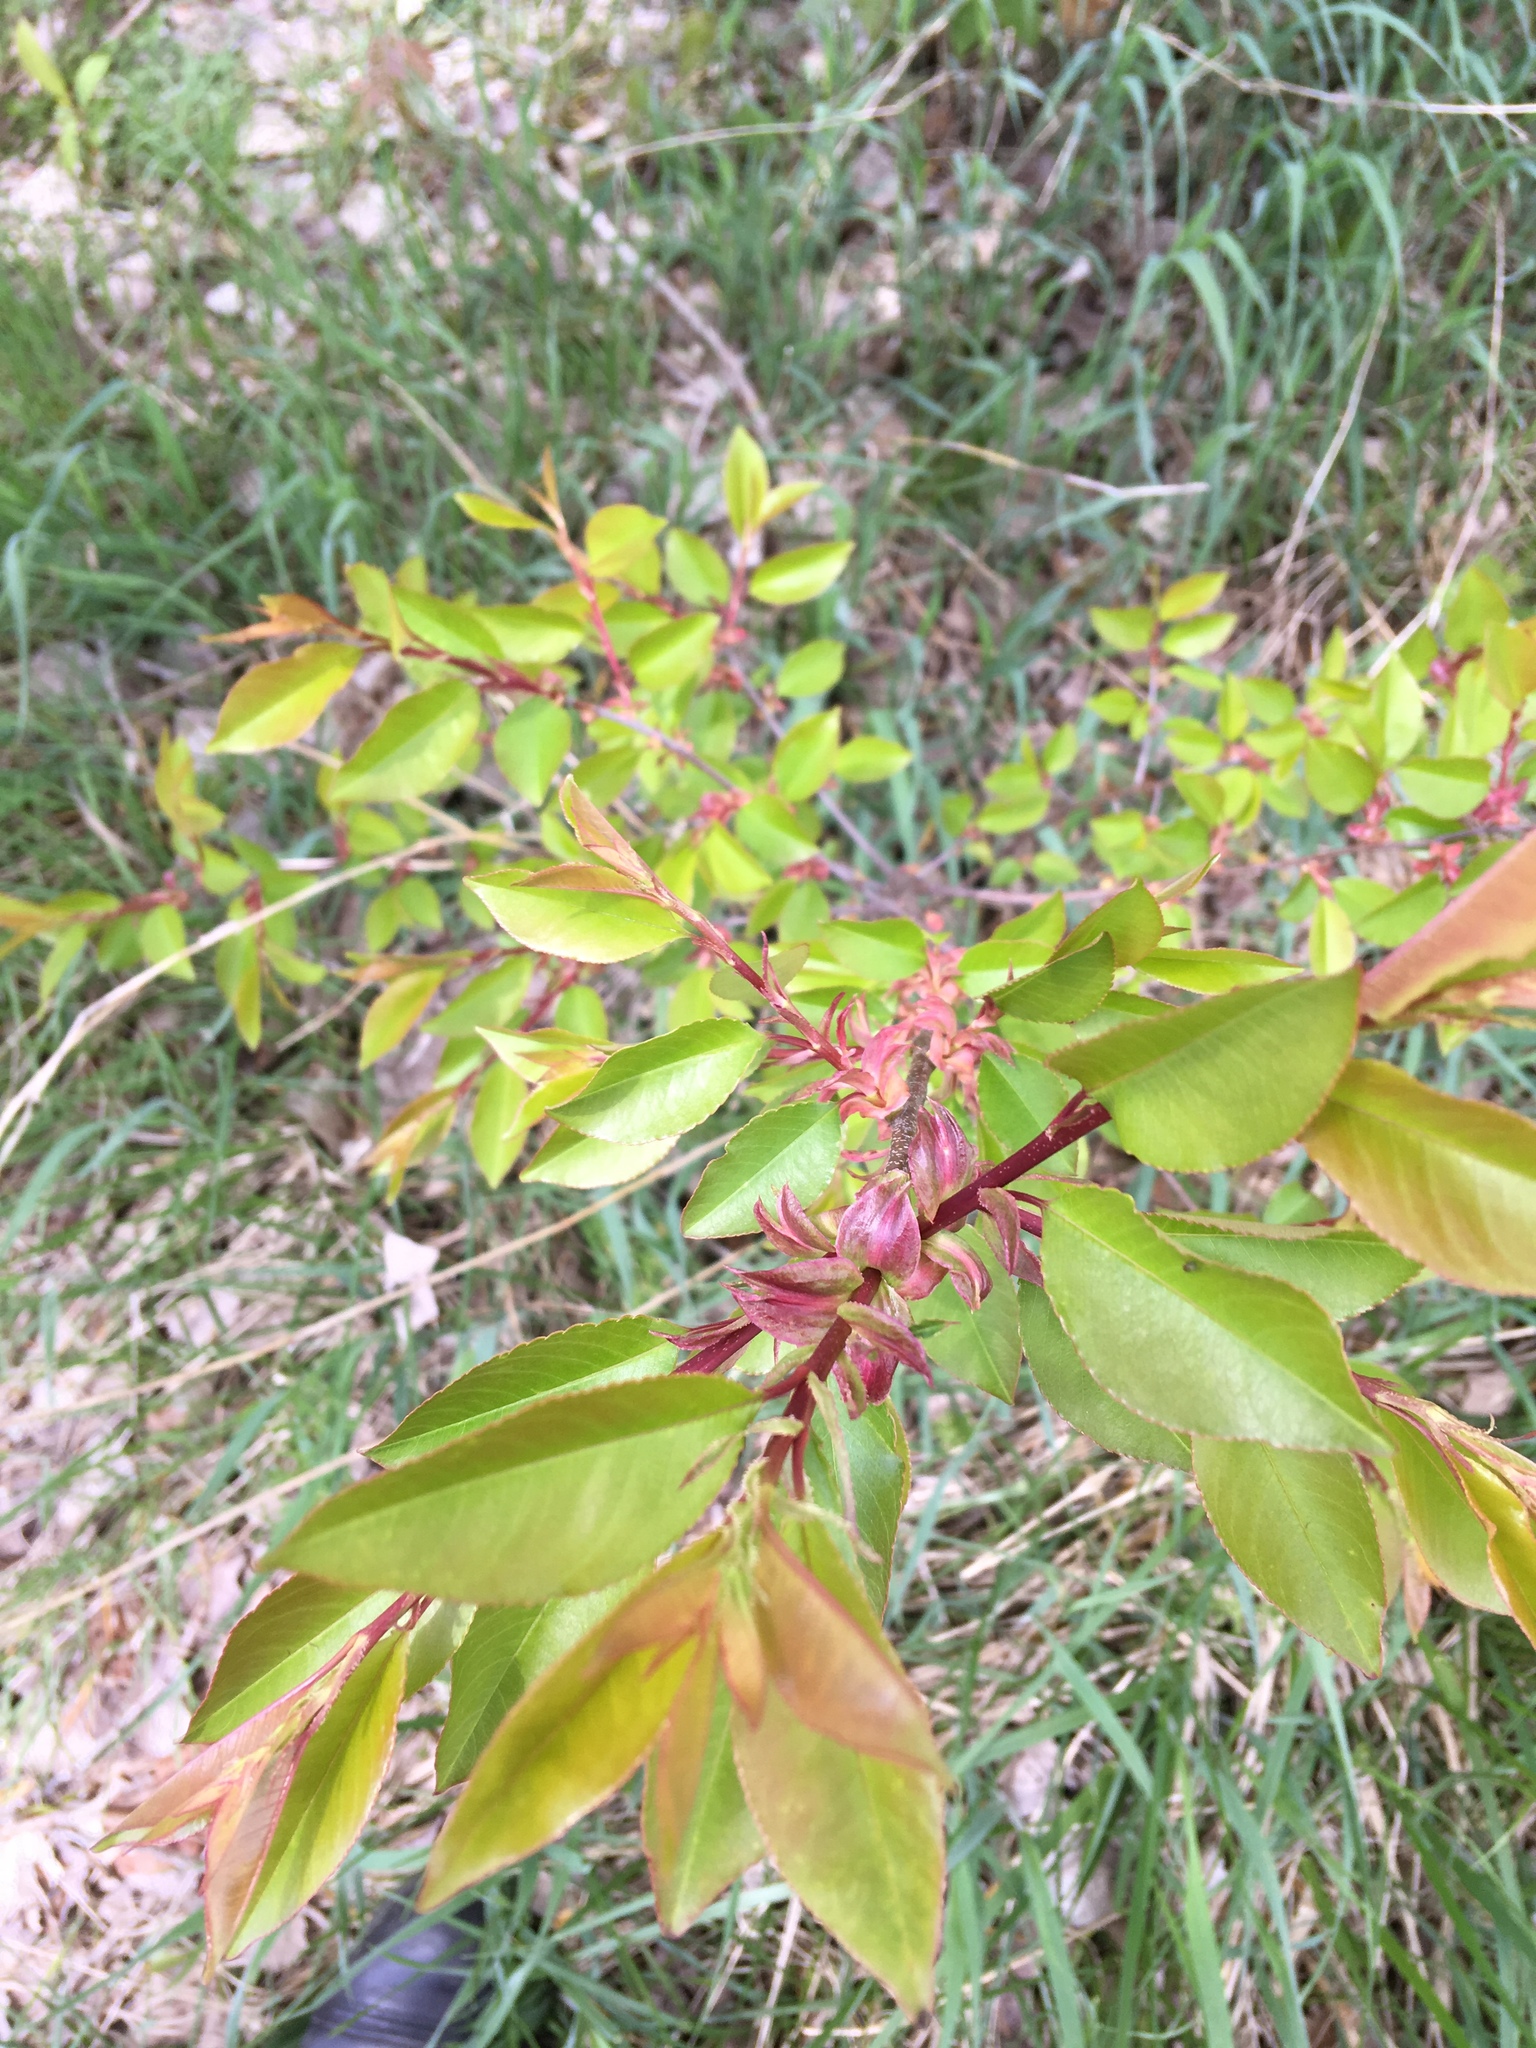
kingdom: Plantae
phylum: Tracheophyta
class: Magnoliopsida
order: Rosales
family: Rosaceae
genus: Prunus
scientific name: Prunus serotina
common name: Black cherry
